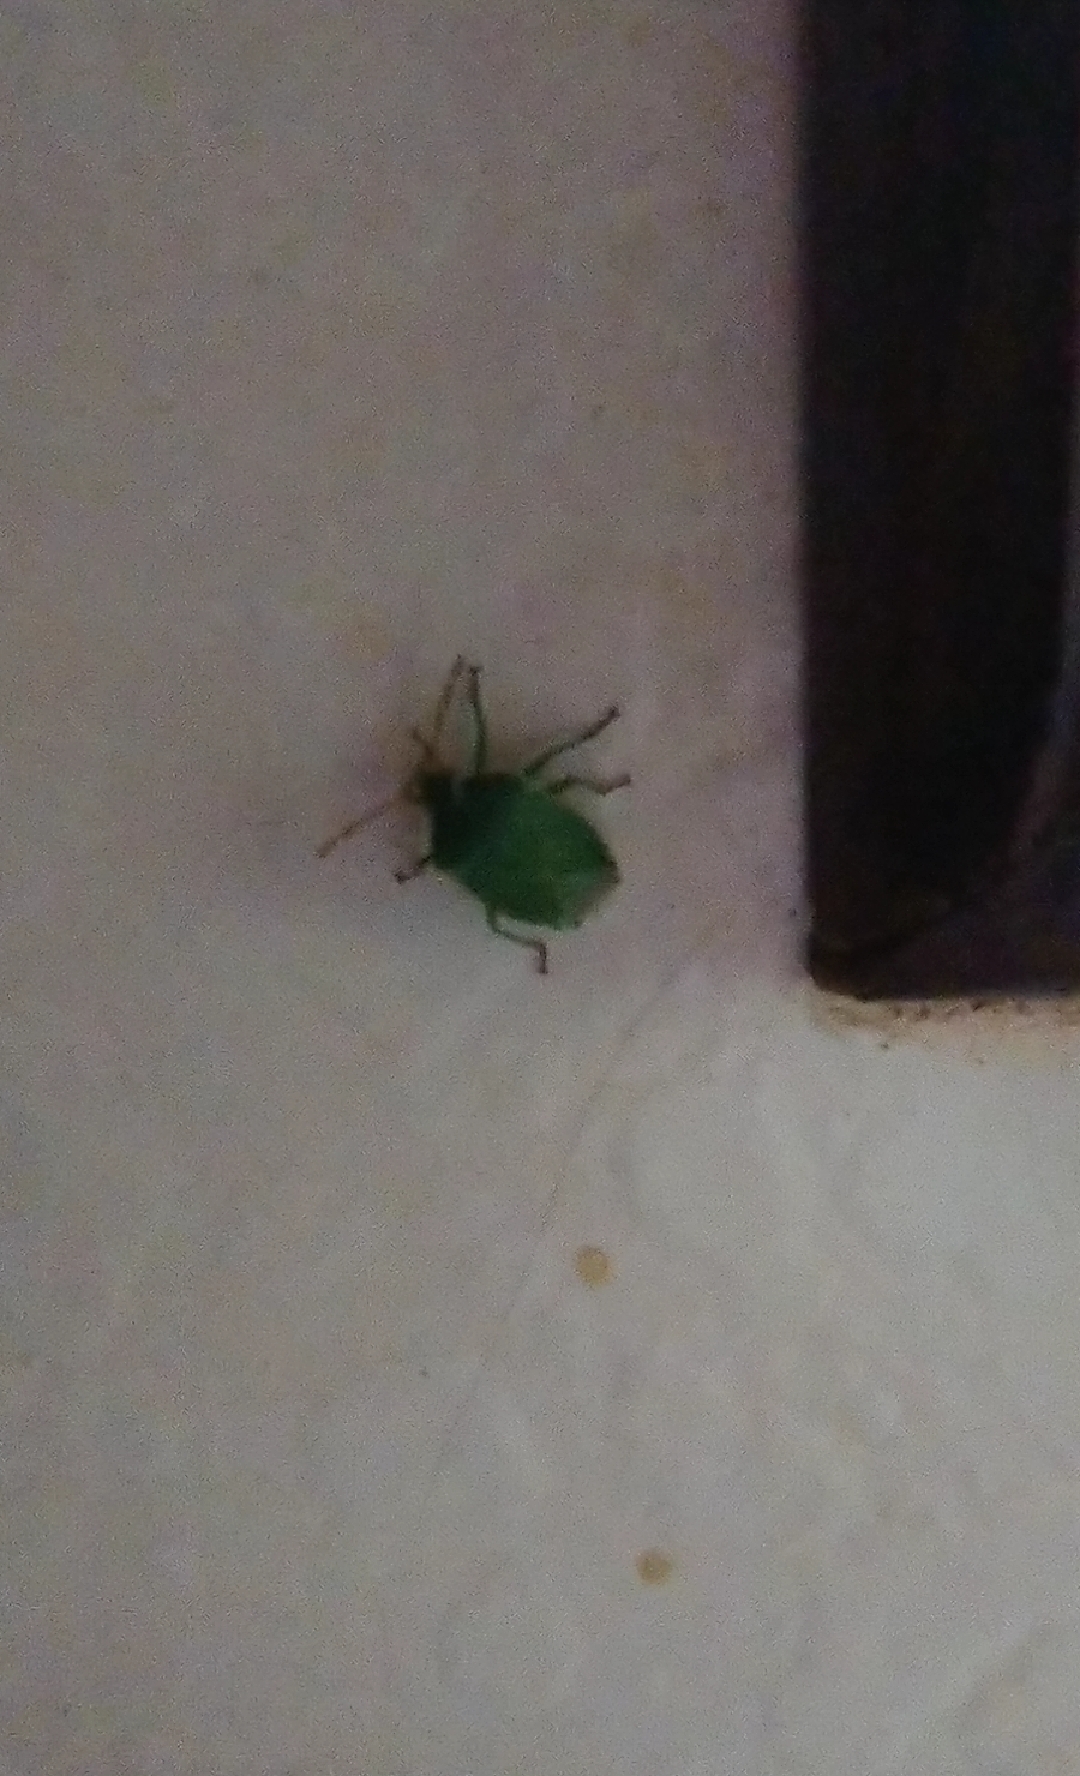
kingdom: Animalia
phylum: Arthropoda
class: Insecta
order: Hemiptera
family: Acanthosomatidae
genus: Sinopla
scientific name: Sinopla perpunctatus
